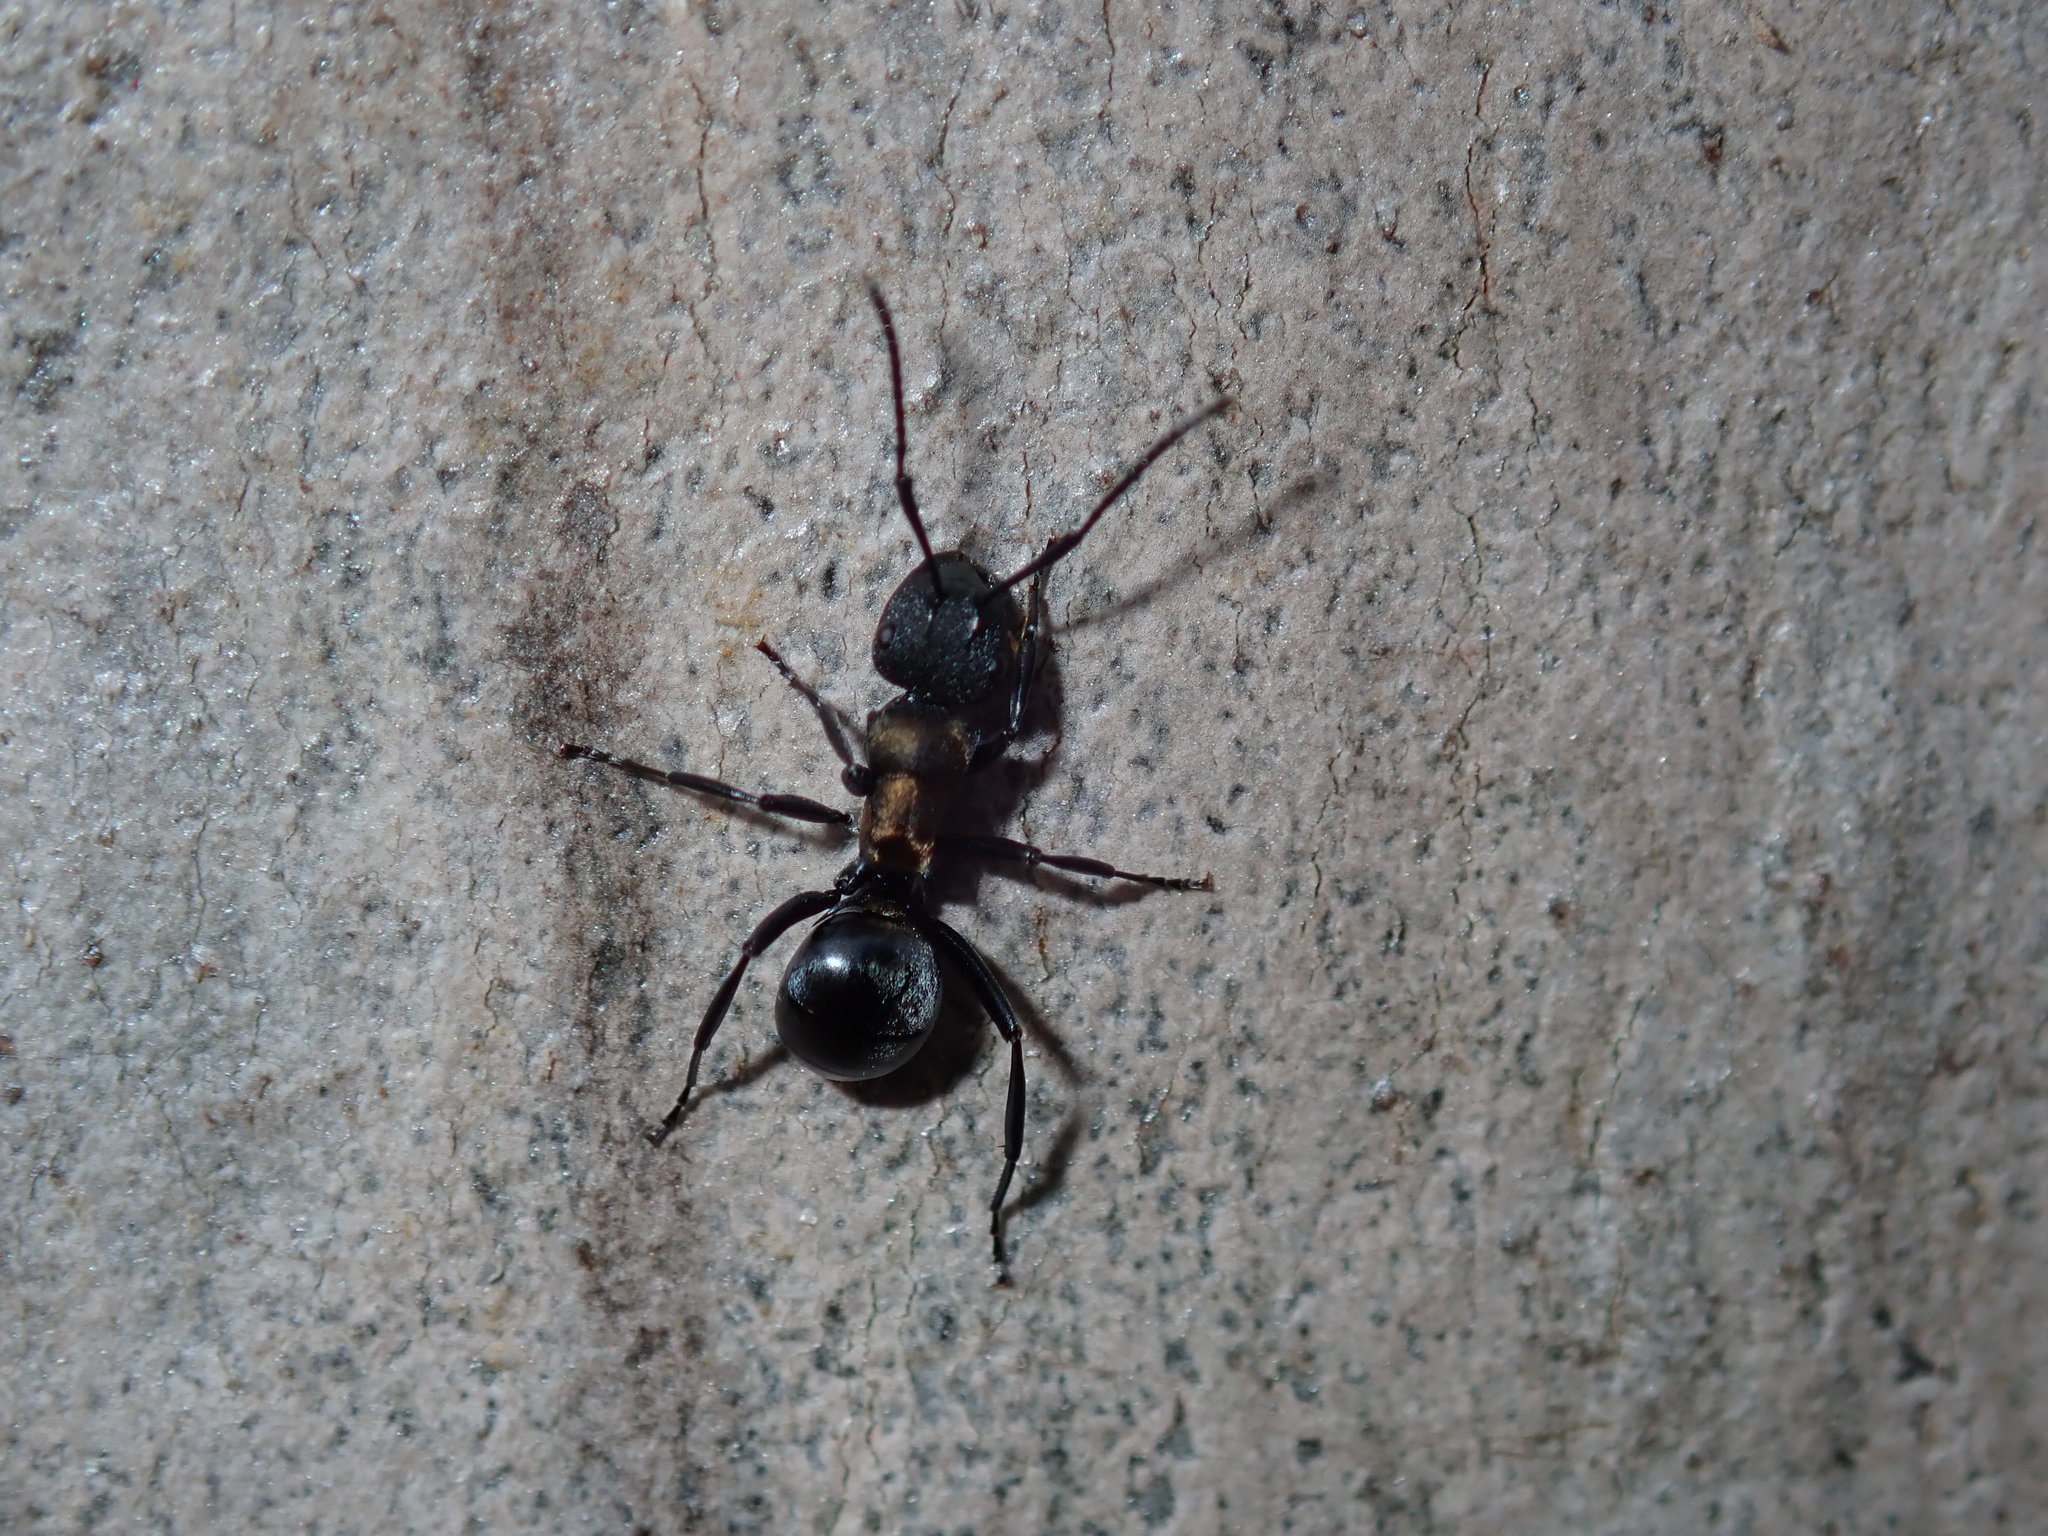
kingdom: Animalia
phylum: Arthropoda
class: Insecta
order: Hymenoptera
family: Formicidae
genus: Polyrhachis
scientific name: Polyrhachis ornata
